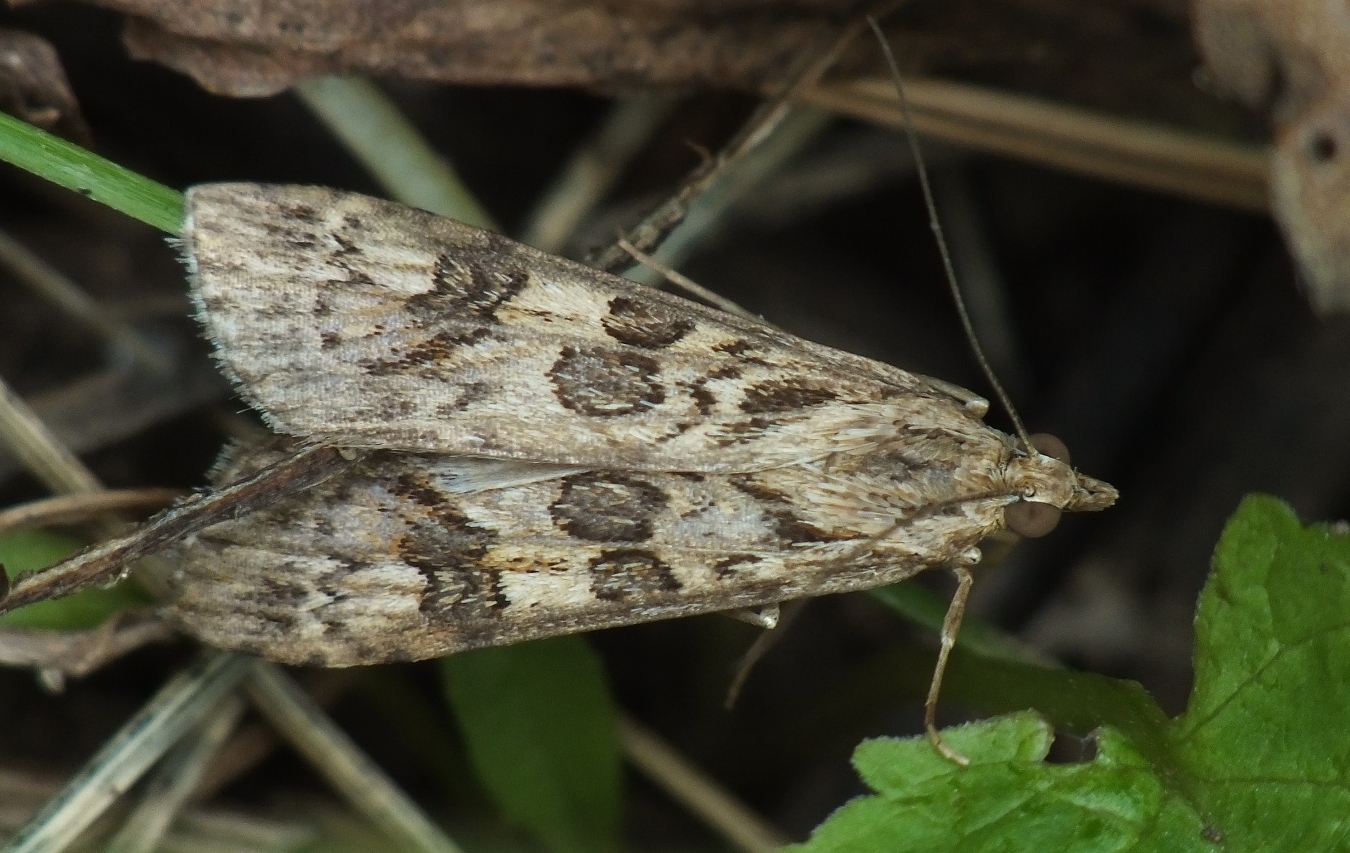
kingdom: Animalia
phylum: Arthropoda
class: Insecta
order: Lepidoptera
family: Crambidae
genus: Nomophila
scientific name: Nomophila noctuella
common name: Rush veneer
